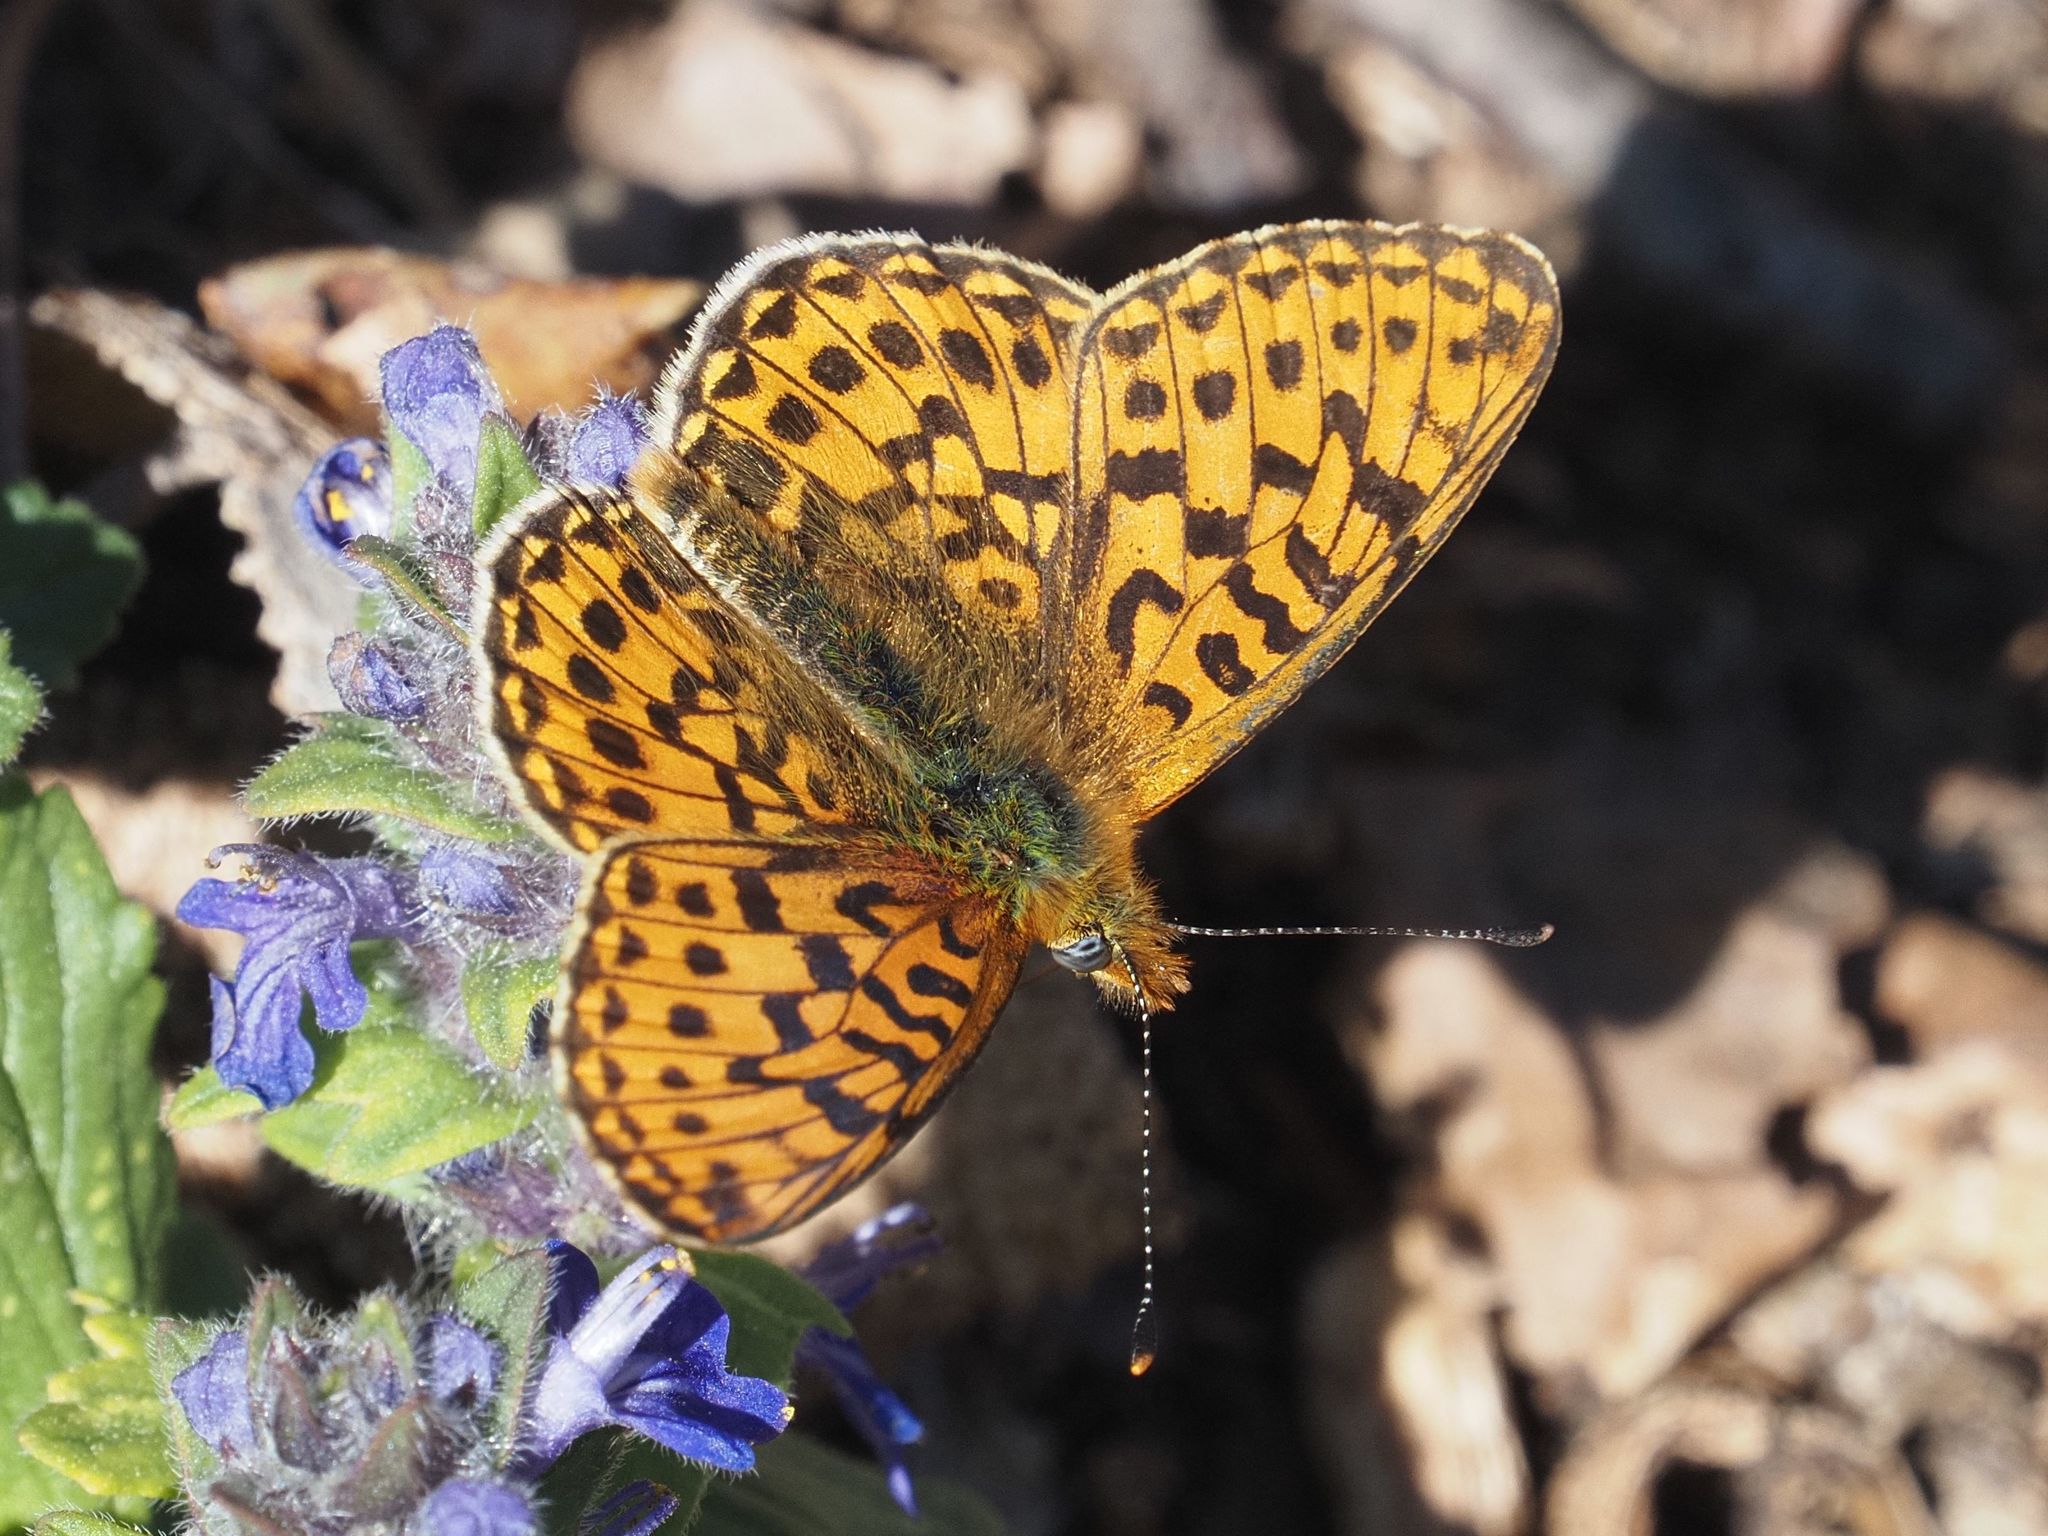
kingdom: Animalia
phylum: Arthropoda
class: Insecta
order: Lepidoptera
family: Nymphalidae
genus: Clossiana
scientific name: Clossiana euphrosyne
